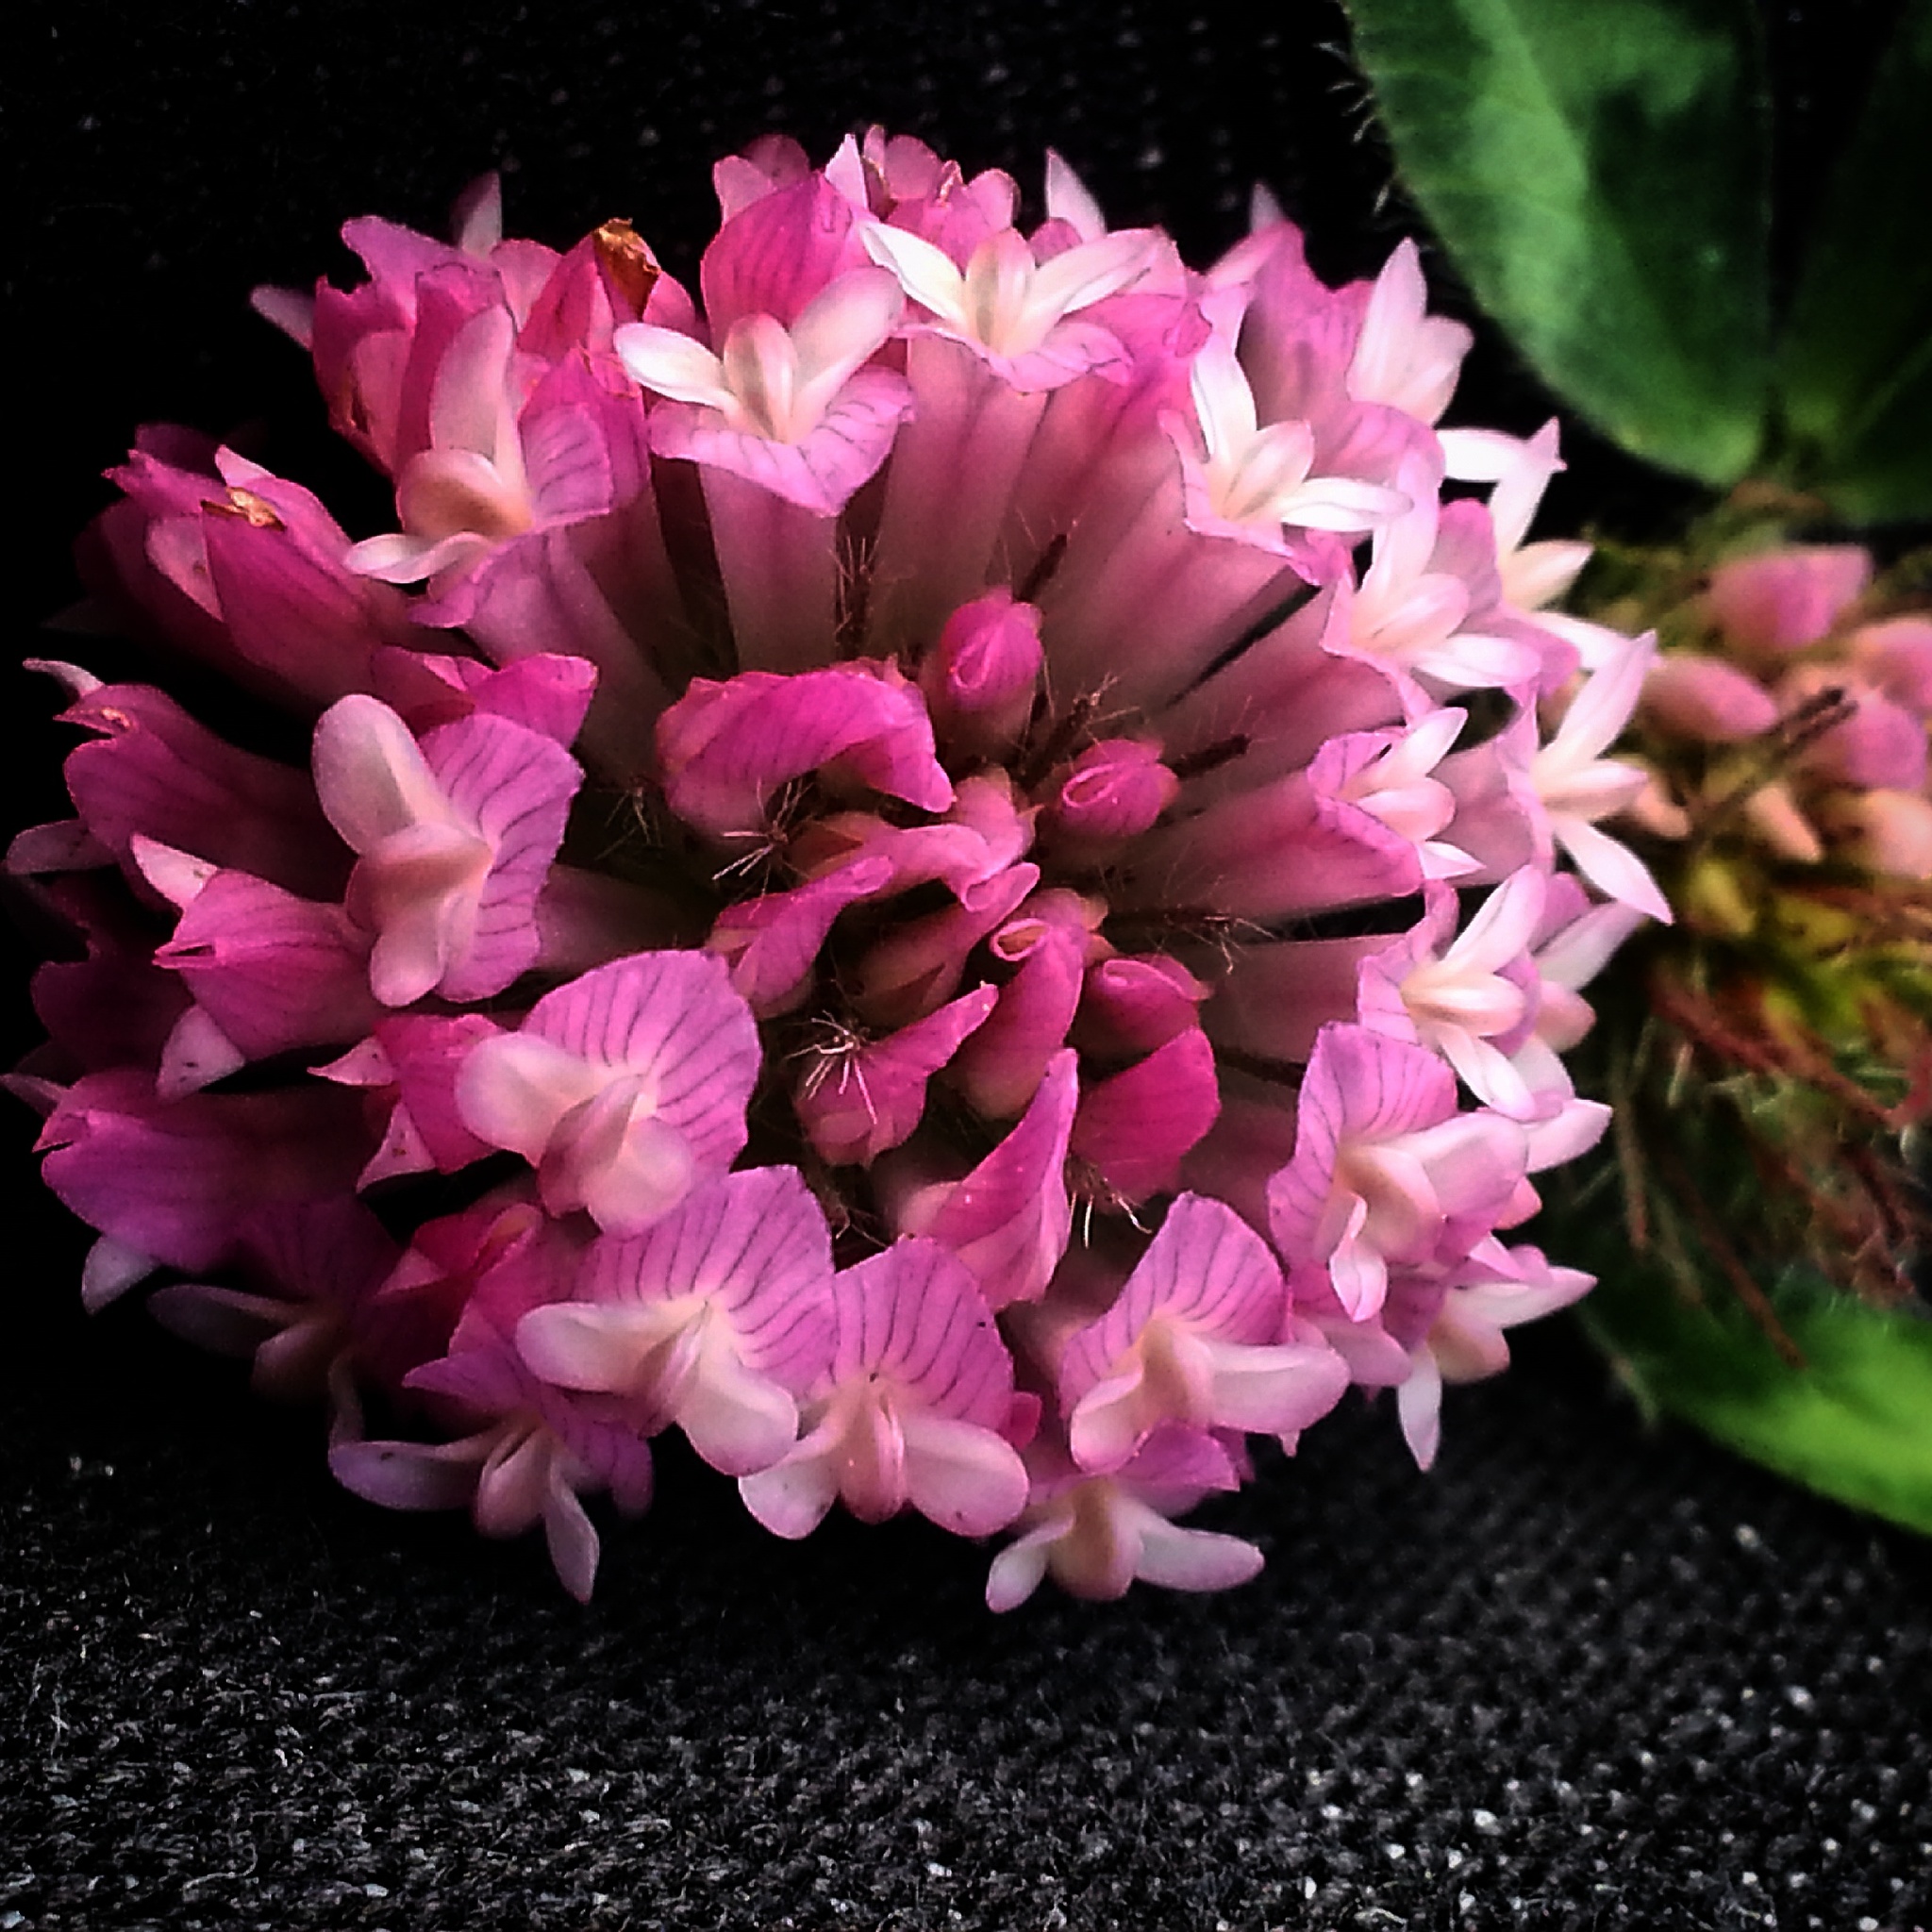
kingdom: Plantae
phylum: Tracheophyta
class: Magnoliopsida
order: Fabales
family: Fabaceae
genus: Trifolium
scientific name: Trifolium pratense
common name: Red clover
